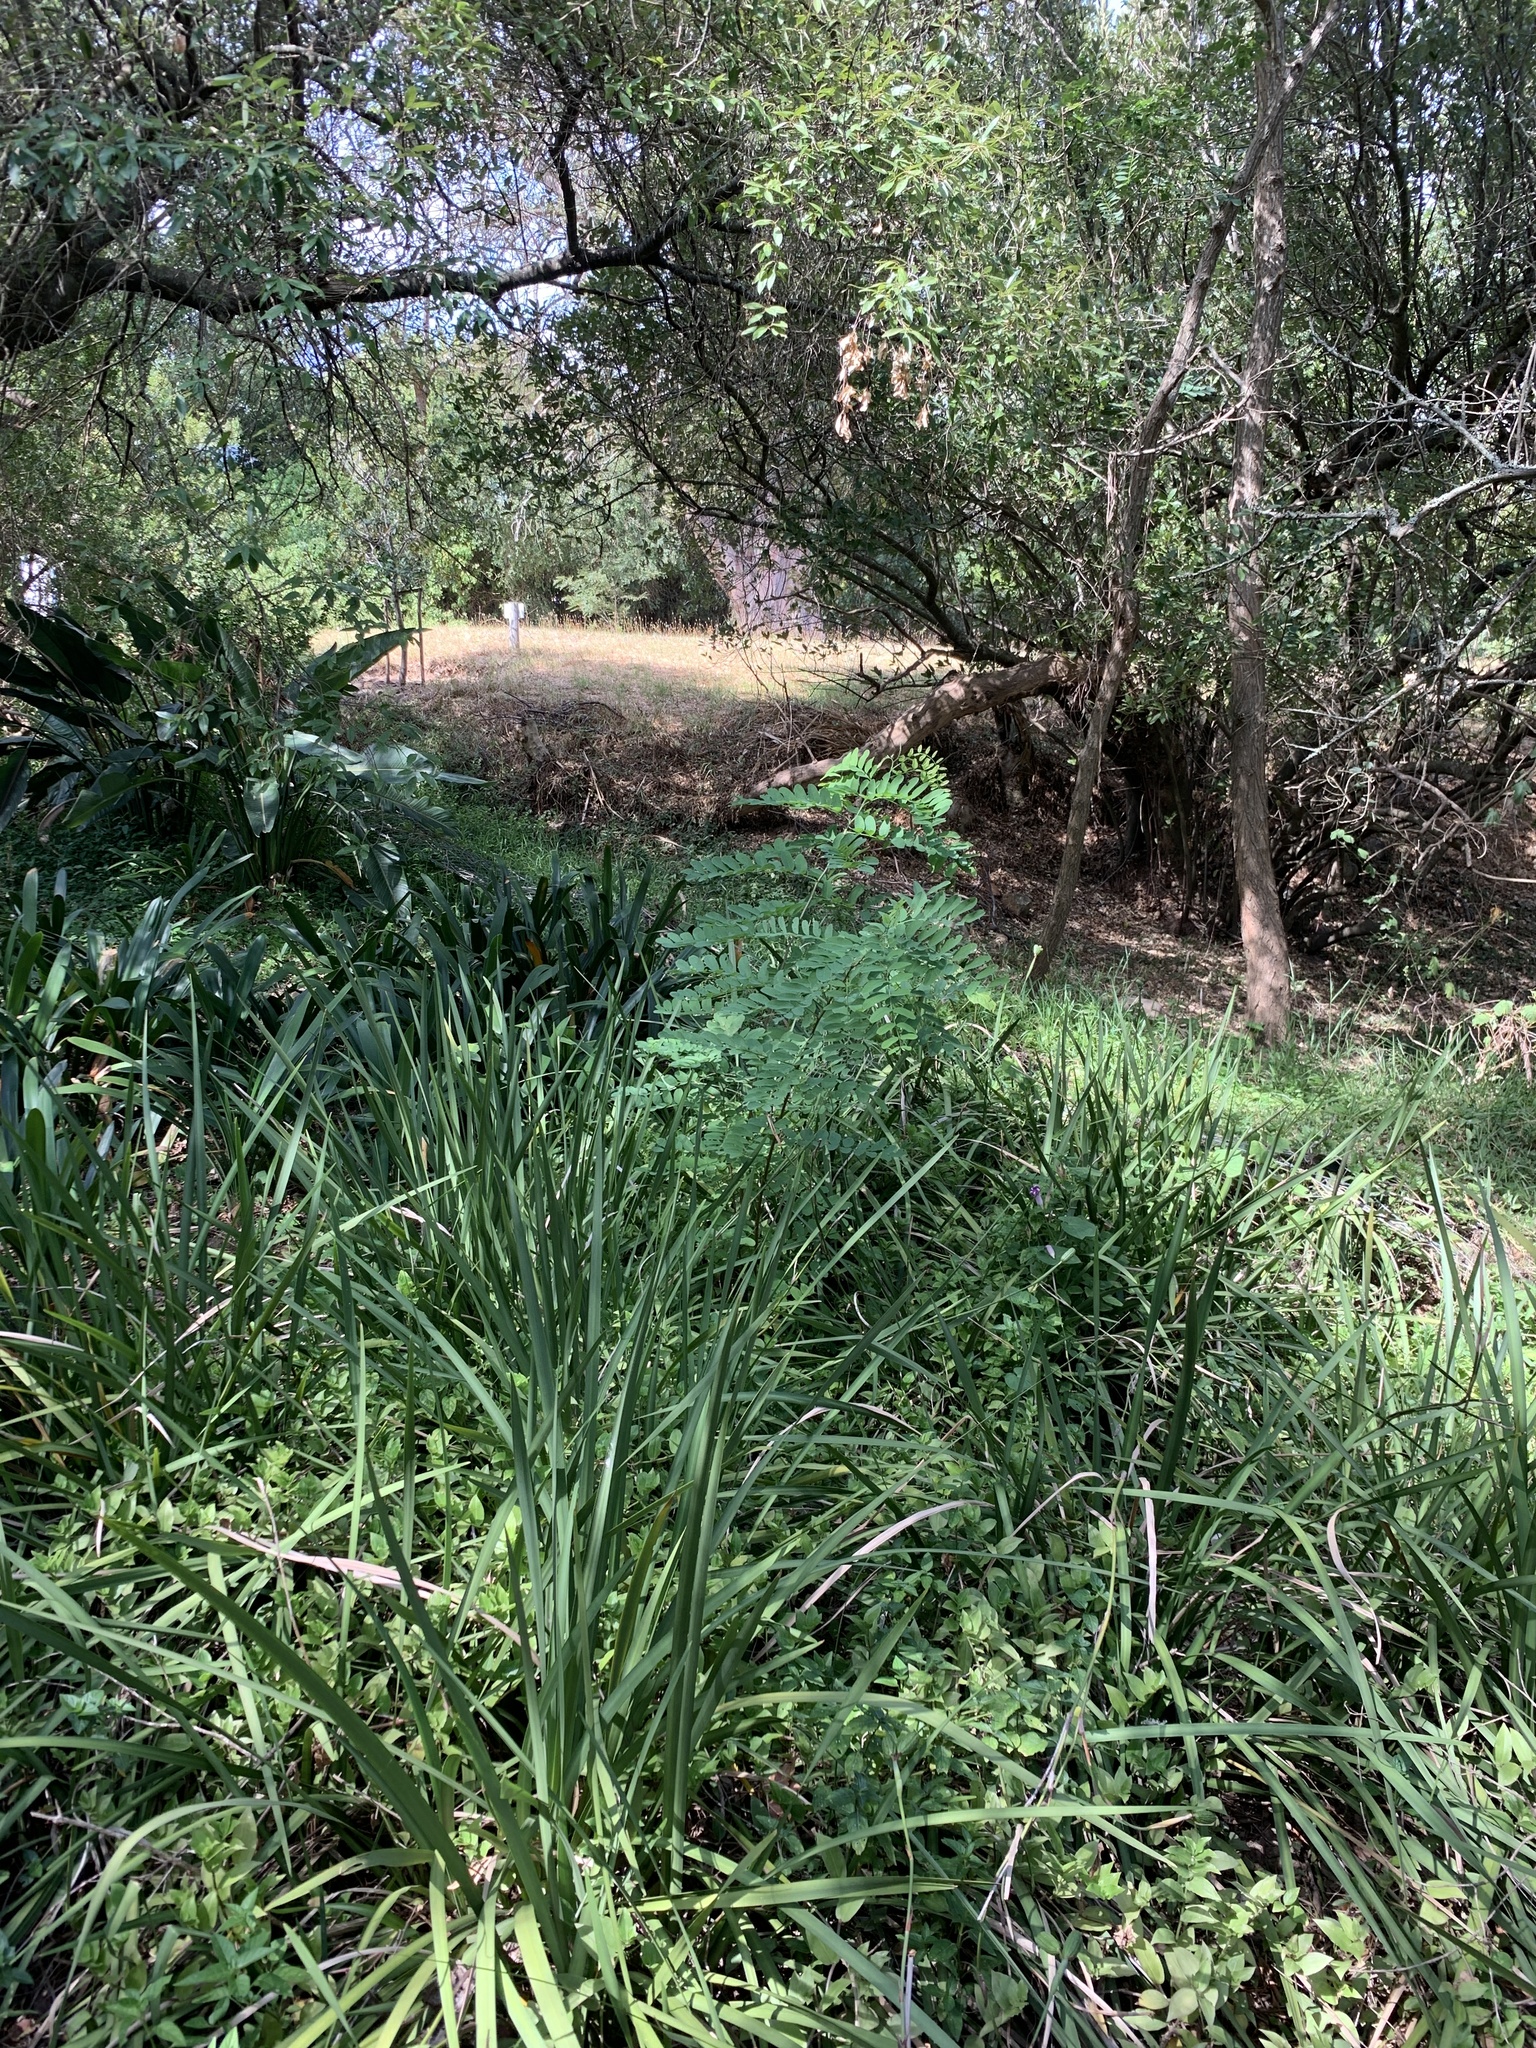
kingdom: Plantae
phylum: Tracheophyta
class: Magnoliopsida
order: Fabales
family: Fabaceae
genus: Robinia
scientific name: Robinia pseudoacacia
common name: Black locust
